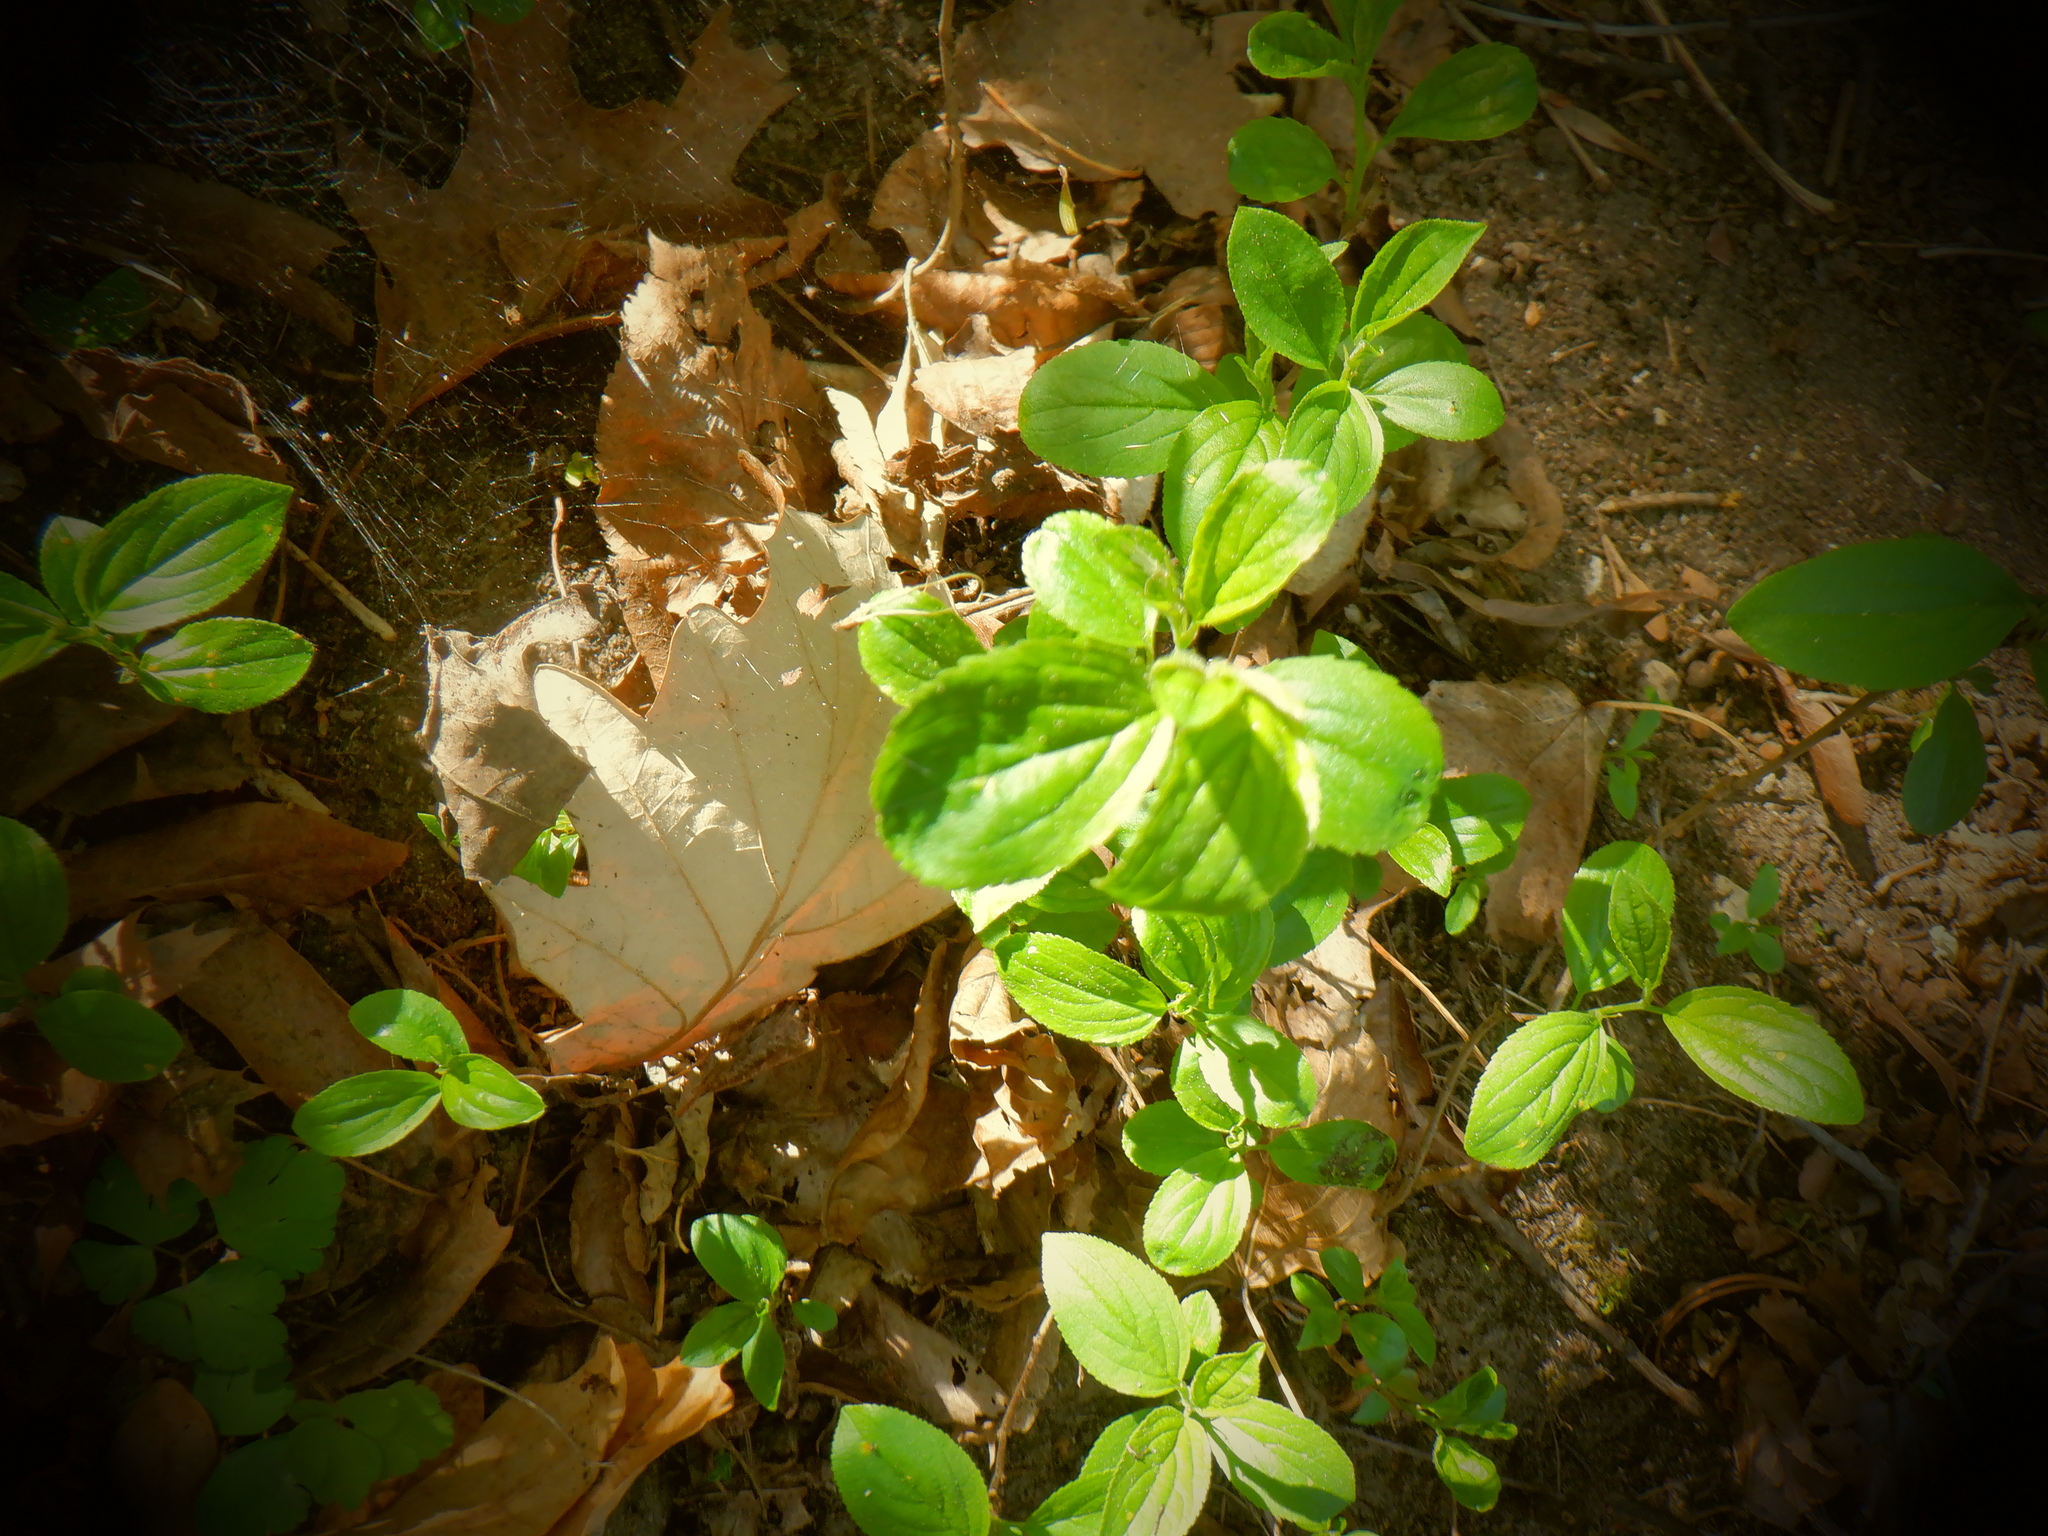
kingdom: Plantae
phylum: Tracheophyta
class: Magnoliopsida
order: Rosales
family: Rhamnaceae
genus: Rhamnus
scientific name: Rhamnus cathartica
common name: Common buckthorn
